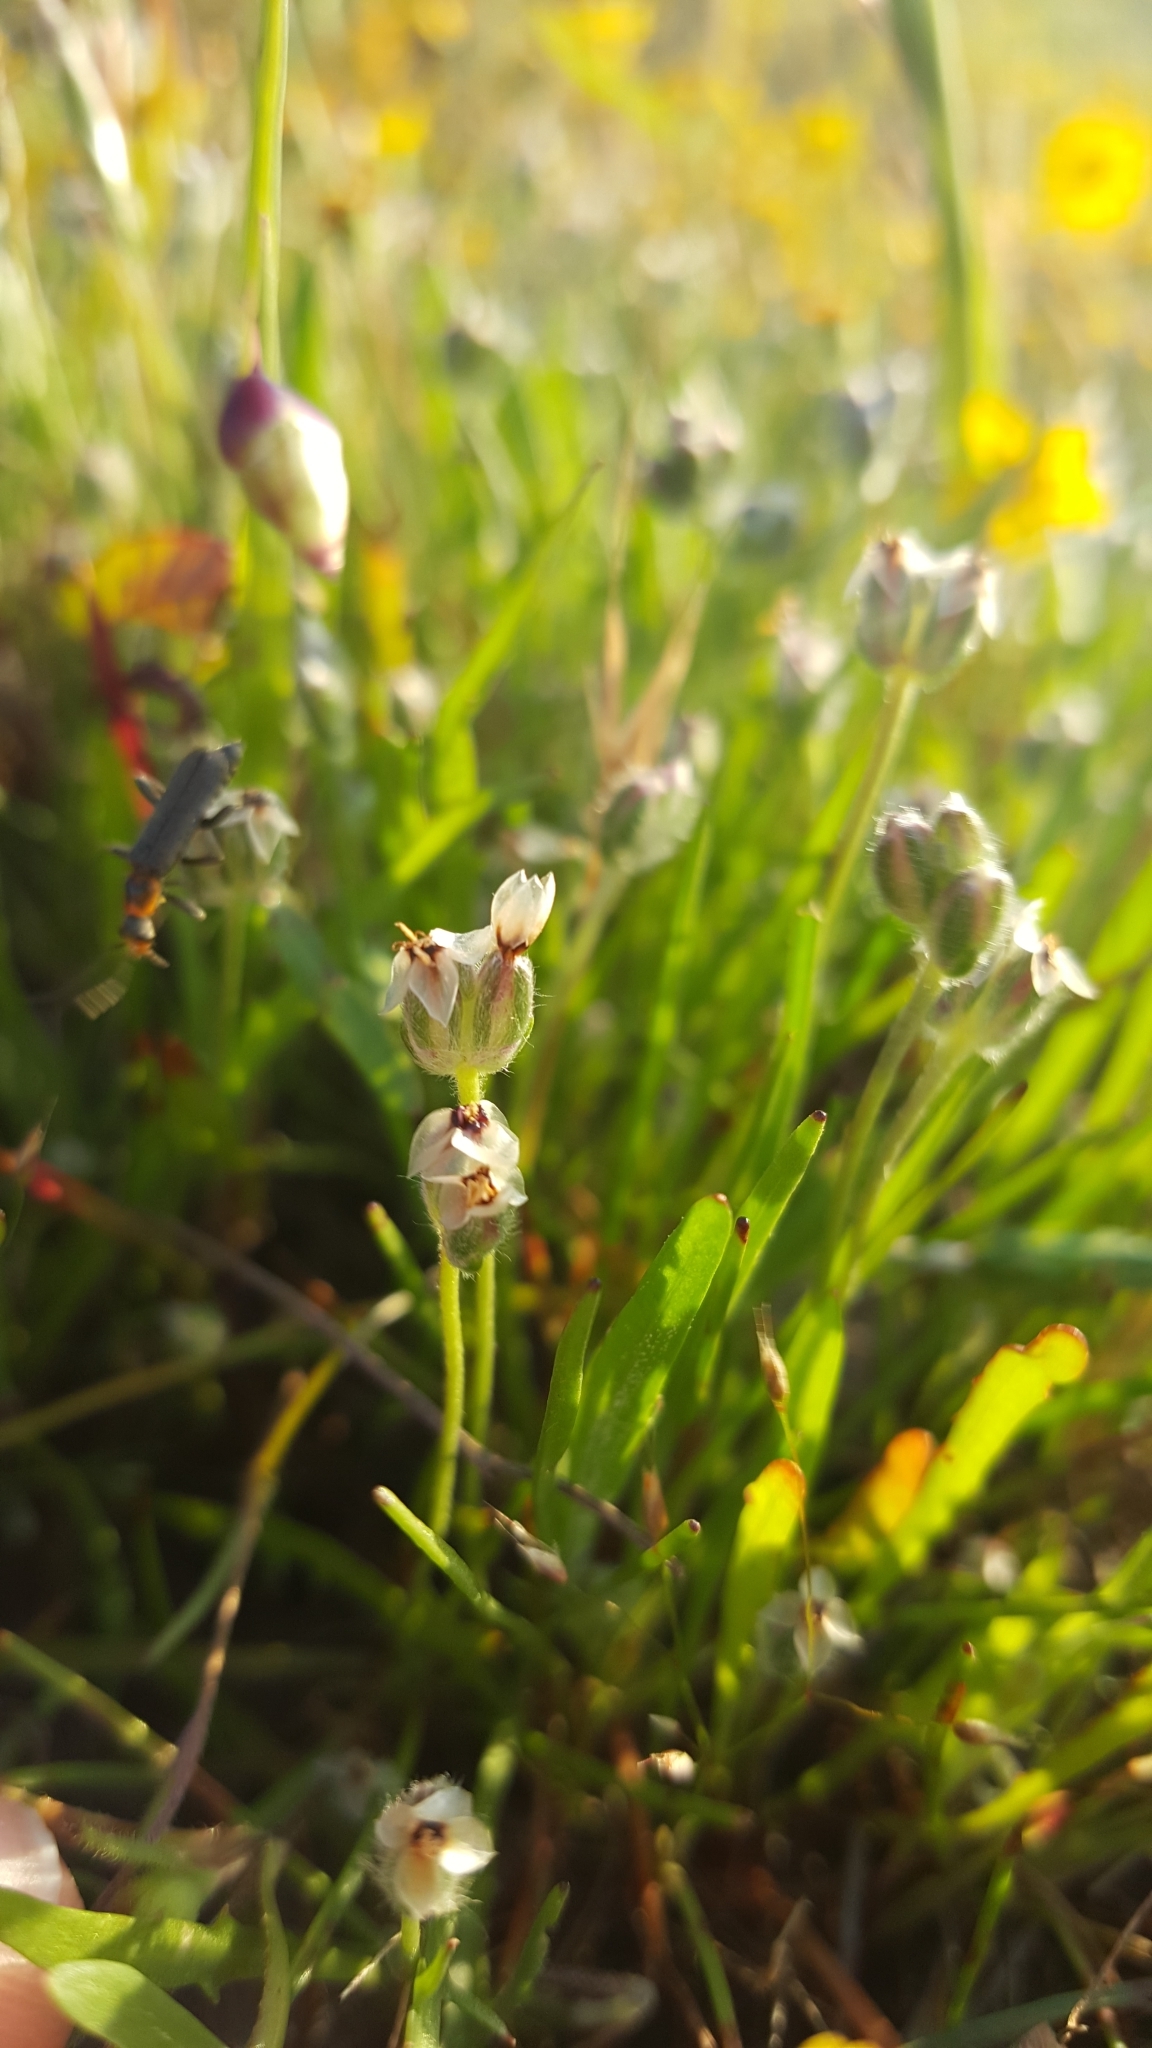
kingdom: Plantae
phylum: Tracheophyta
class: Magnoliopsida
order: Lamiales
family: Plantaginaceae
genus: Plantago
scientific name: Plantago erecta
